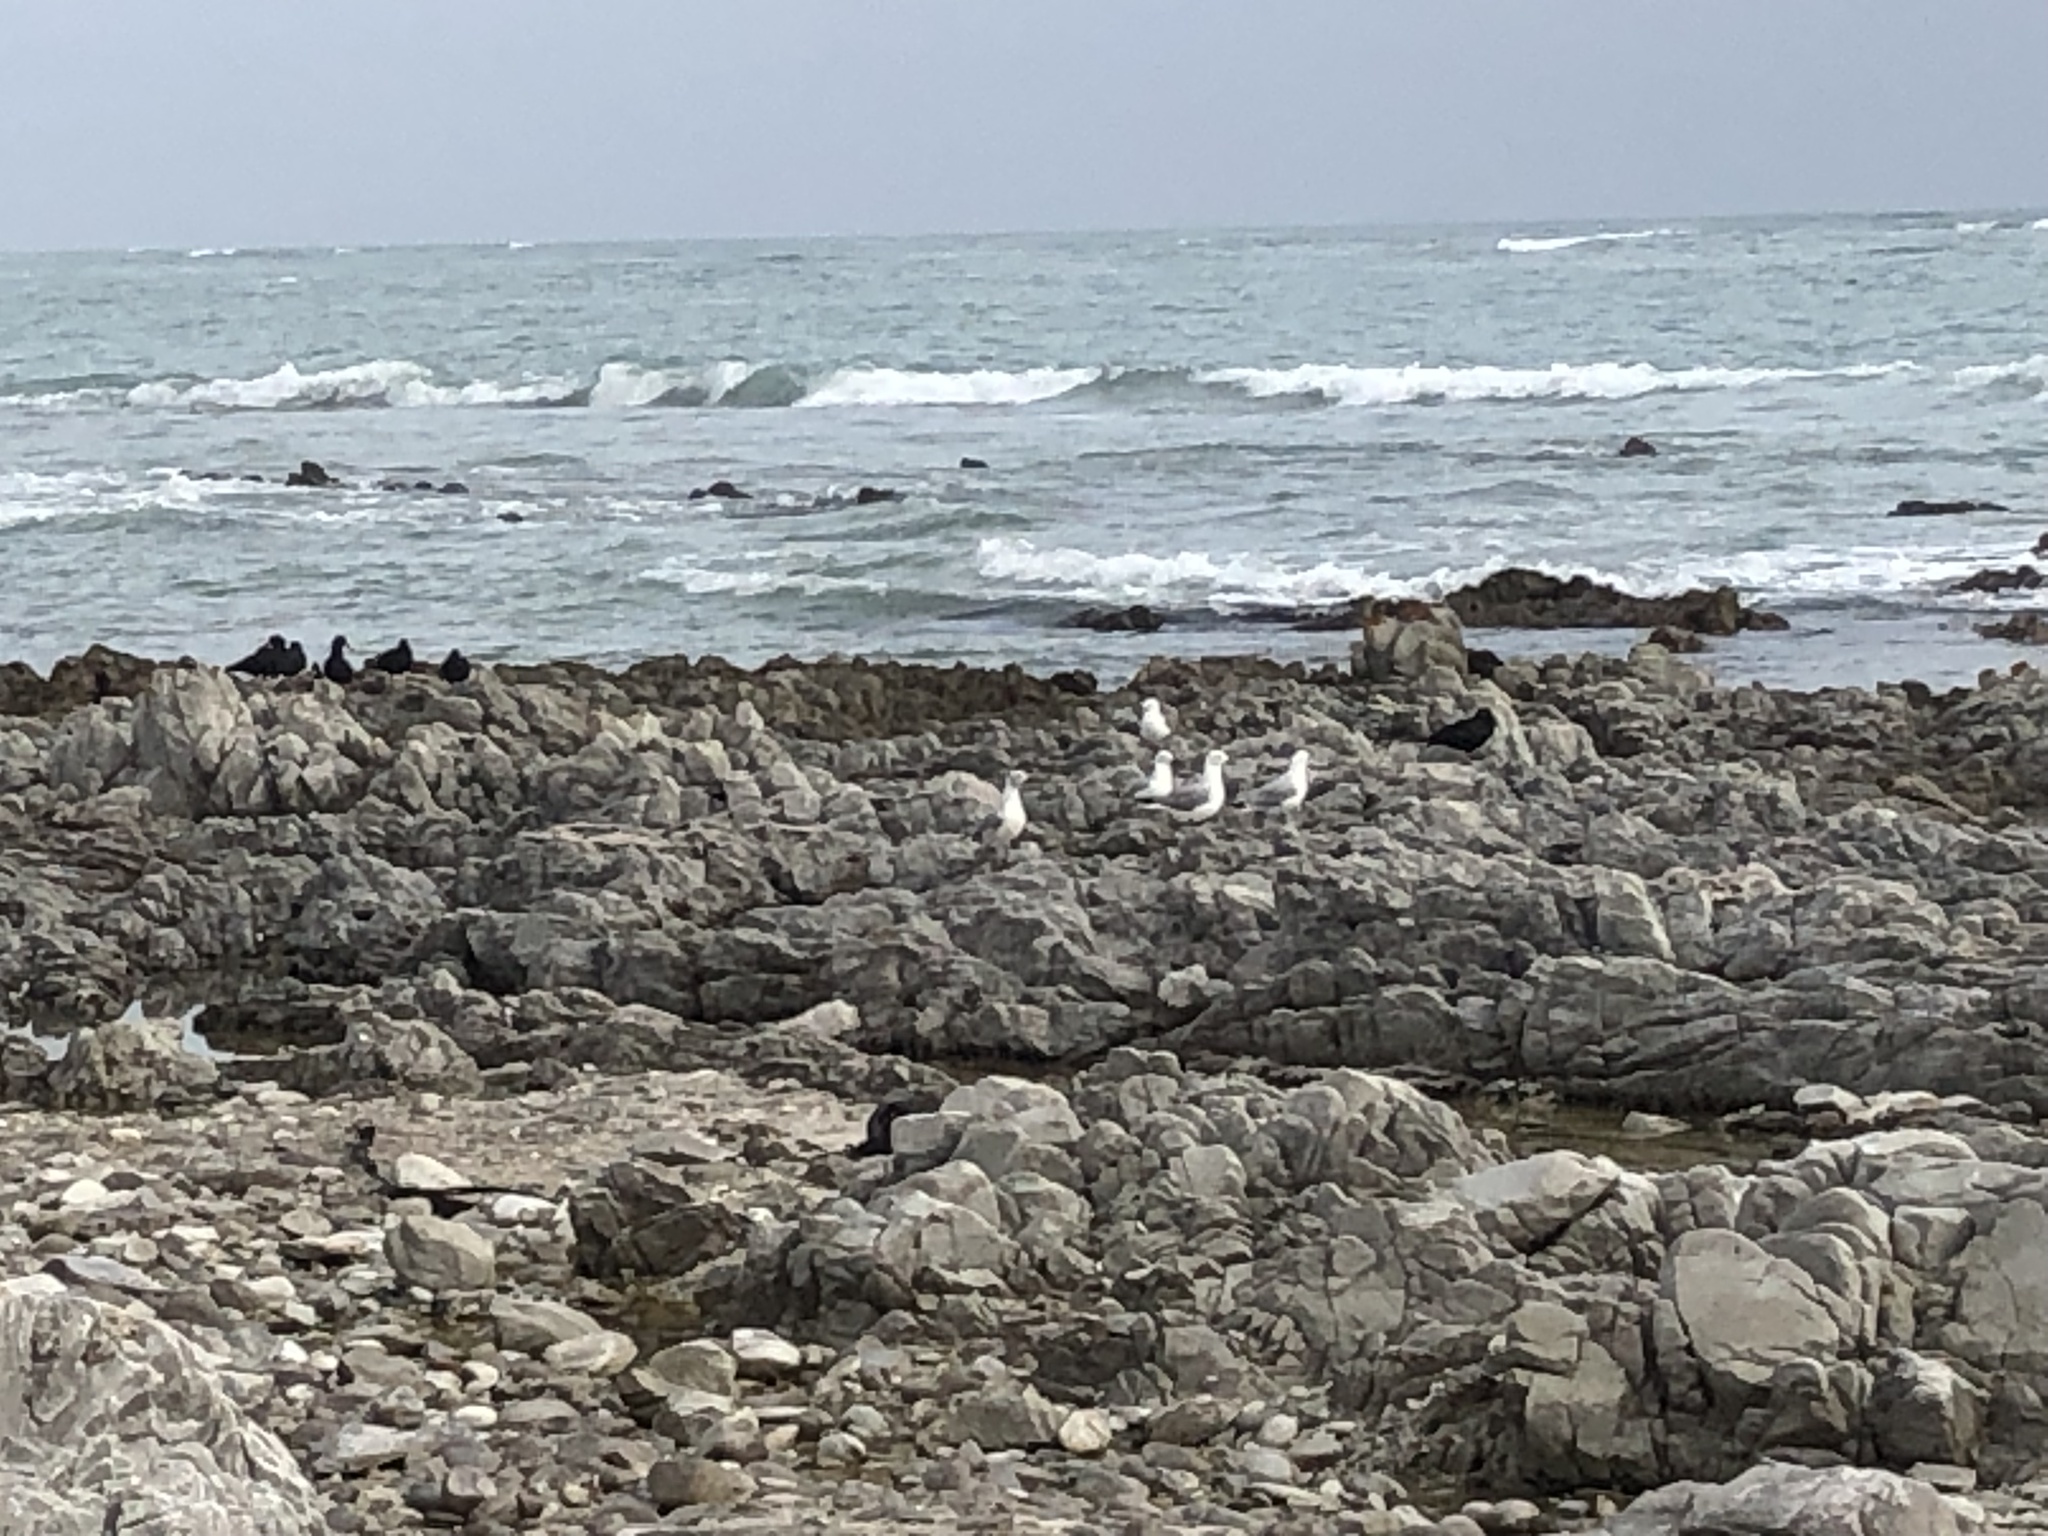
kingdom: Animalia
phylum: Chordata
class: Aves
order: Charadriiformes
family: Laridae
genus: Chroicocephalus
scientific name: Chroicocephalus hartlaubii
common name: Hartlaub's gull
